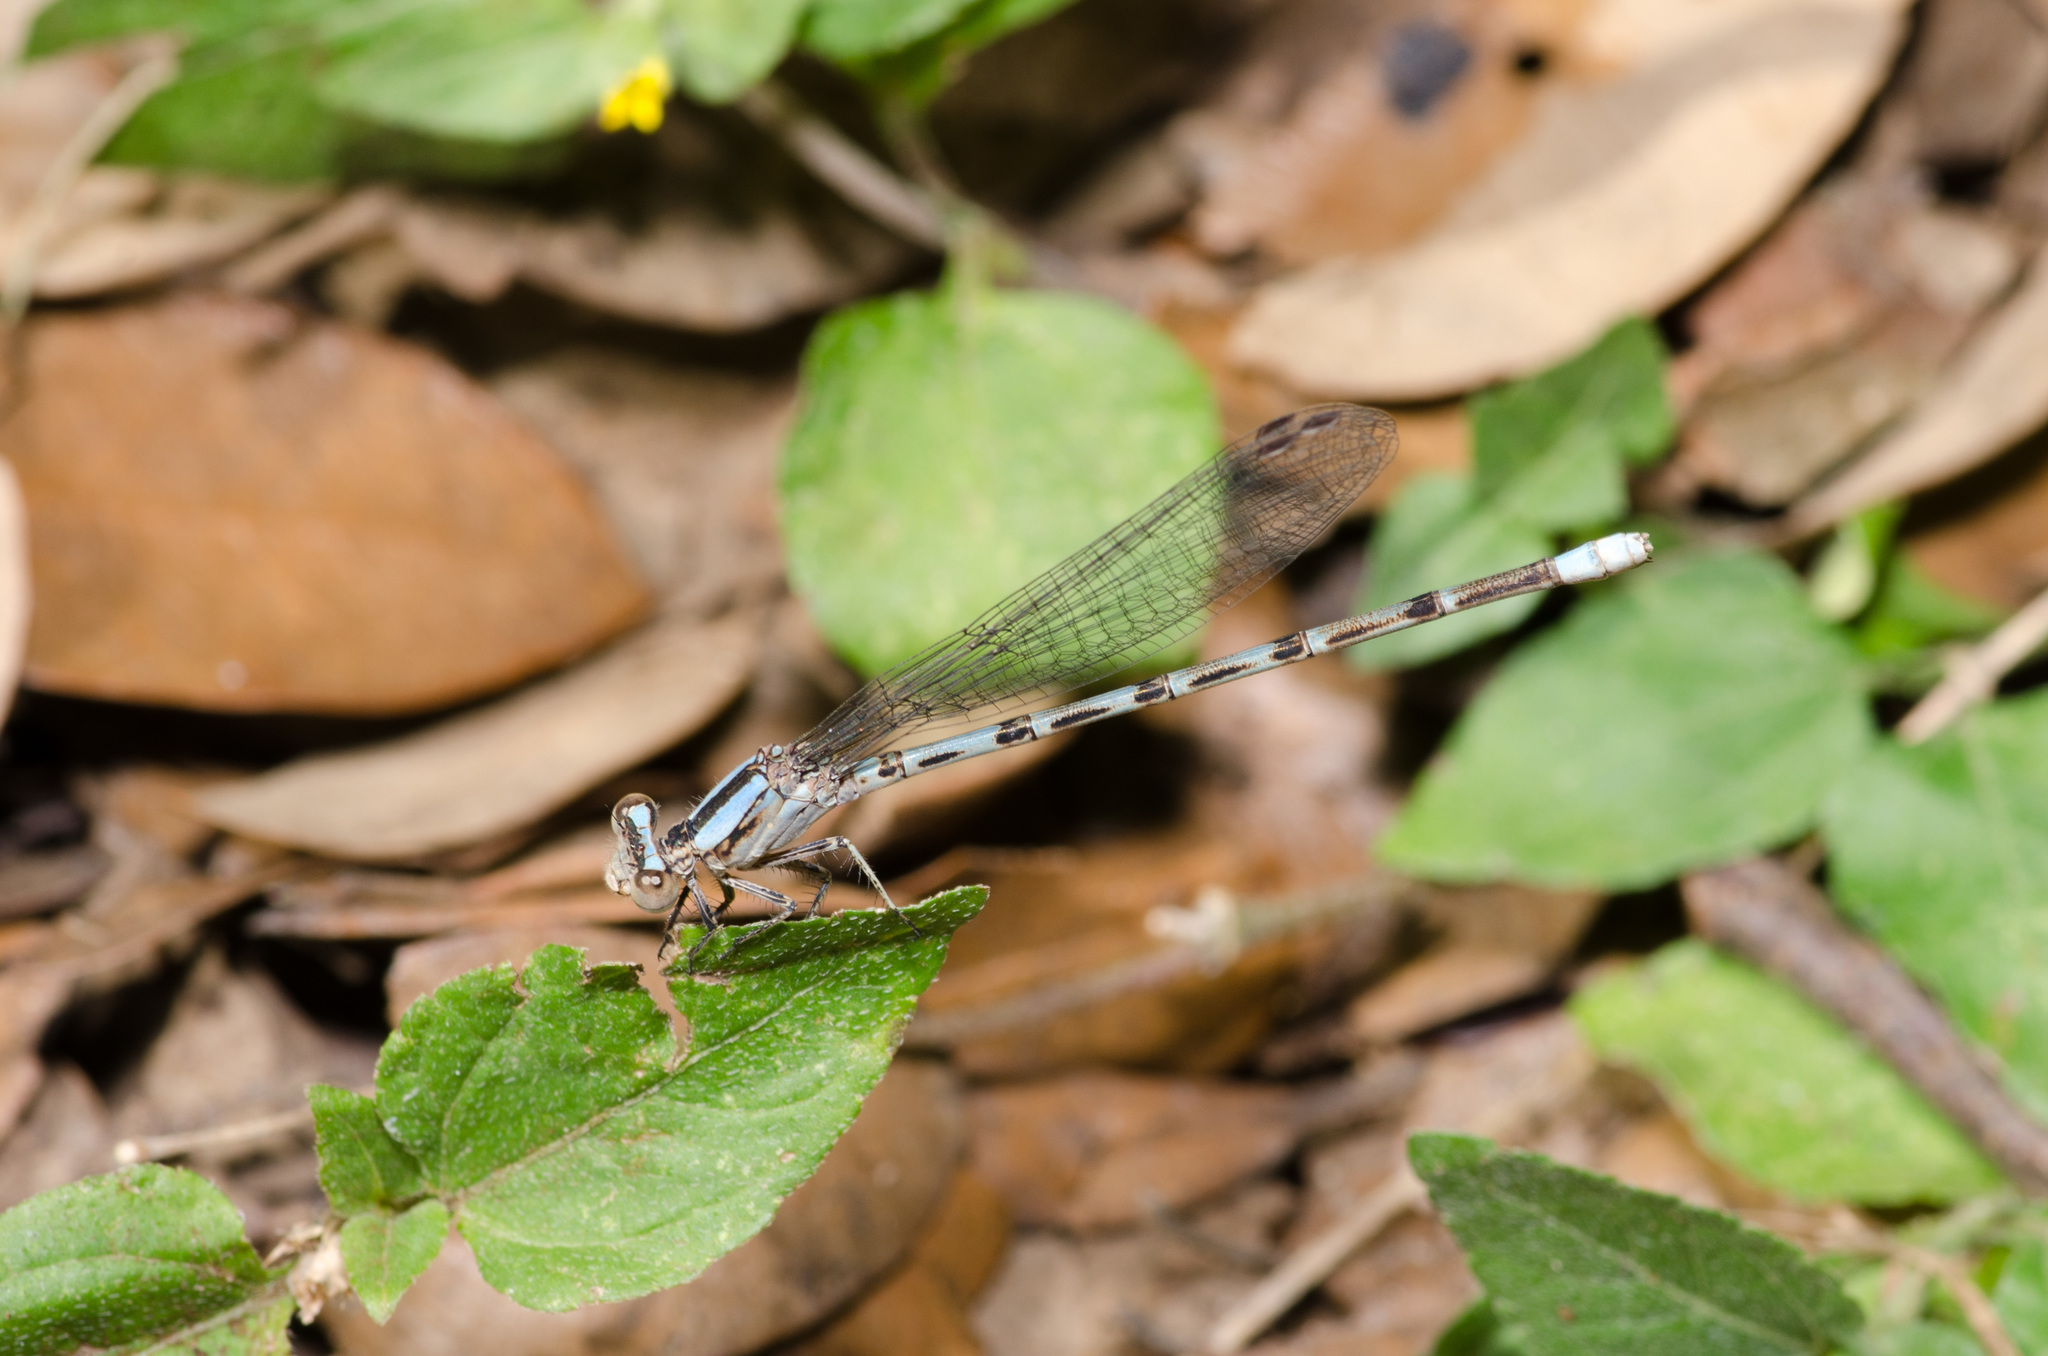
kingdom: Animalia
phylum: Arthropoda
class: Insecta
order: Odonata
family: Coenagrionidae
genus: Argia
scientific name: Argia immunda
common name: Kiowa dancer
